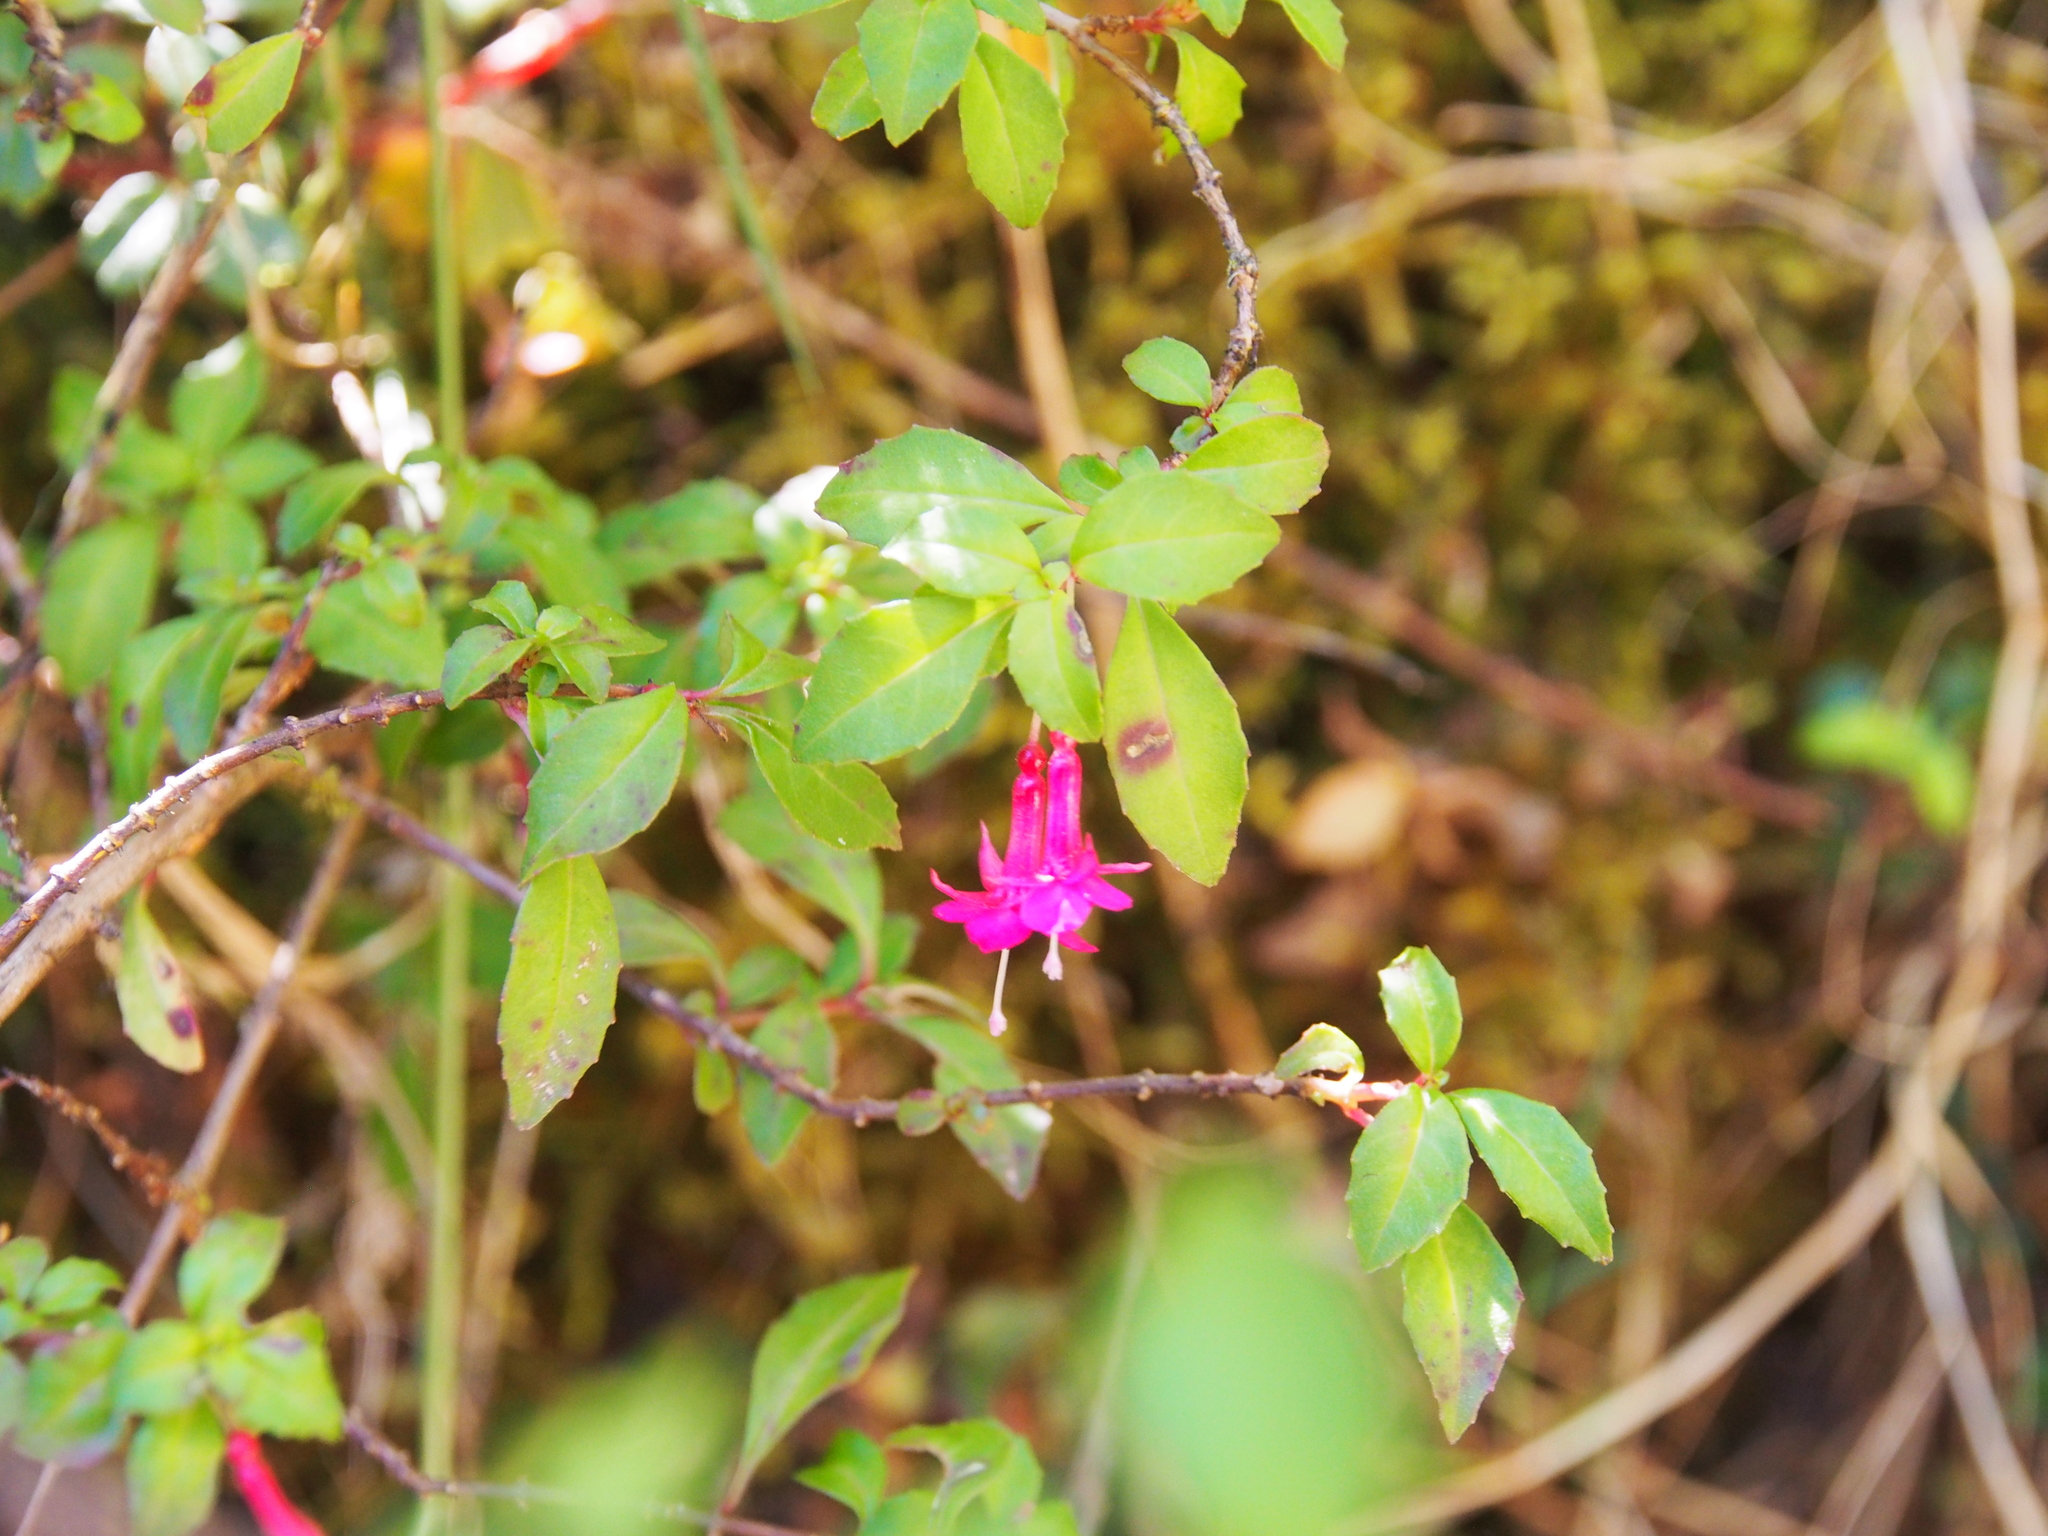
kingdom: Plantae
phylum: Tracheophyta
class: Magnoliopsida
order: Myrtales
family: Onagraceae
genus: Fuchsia
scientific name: Fuchsia microphylla
